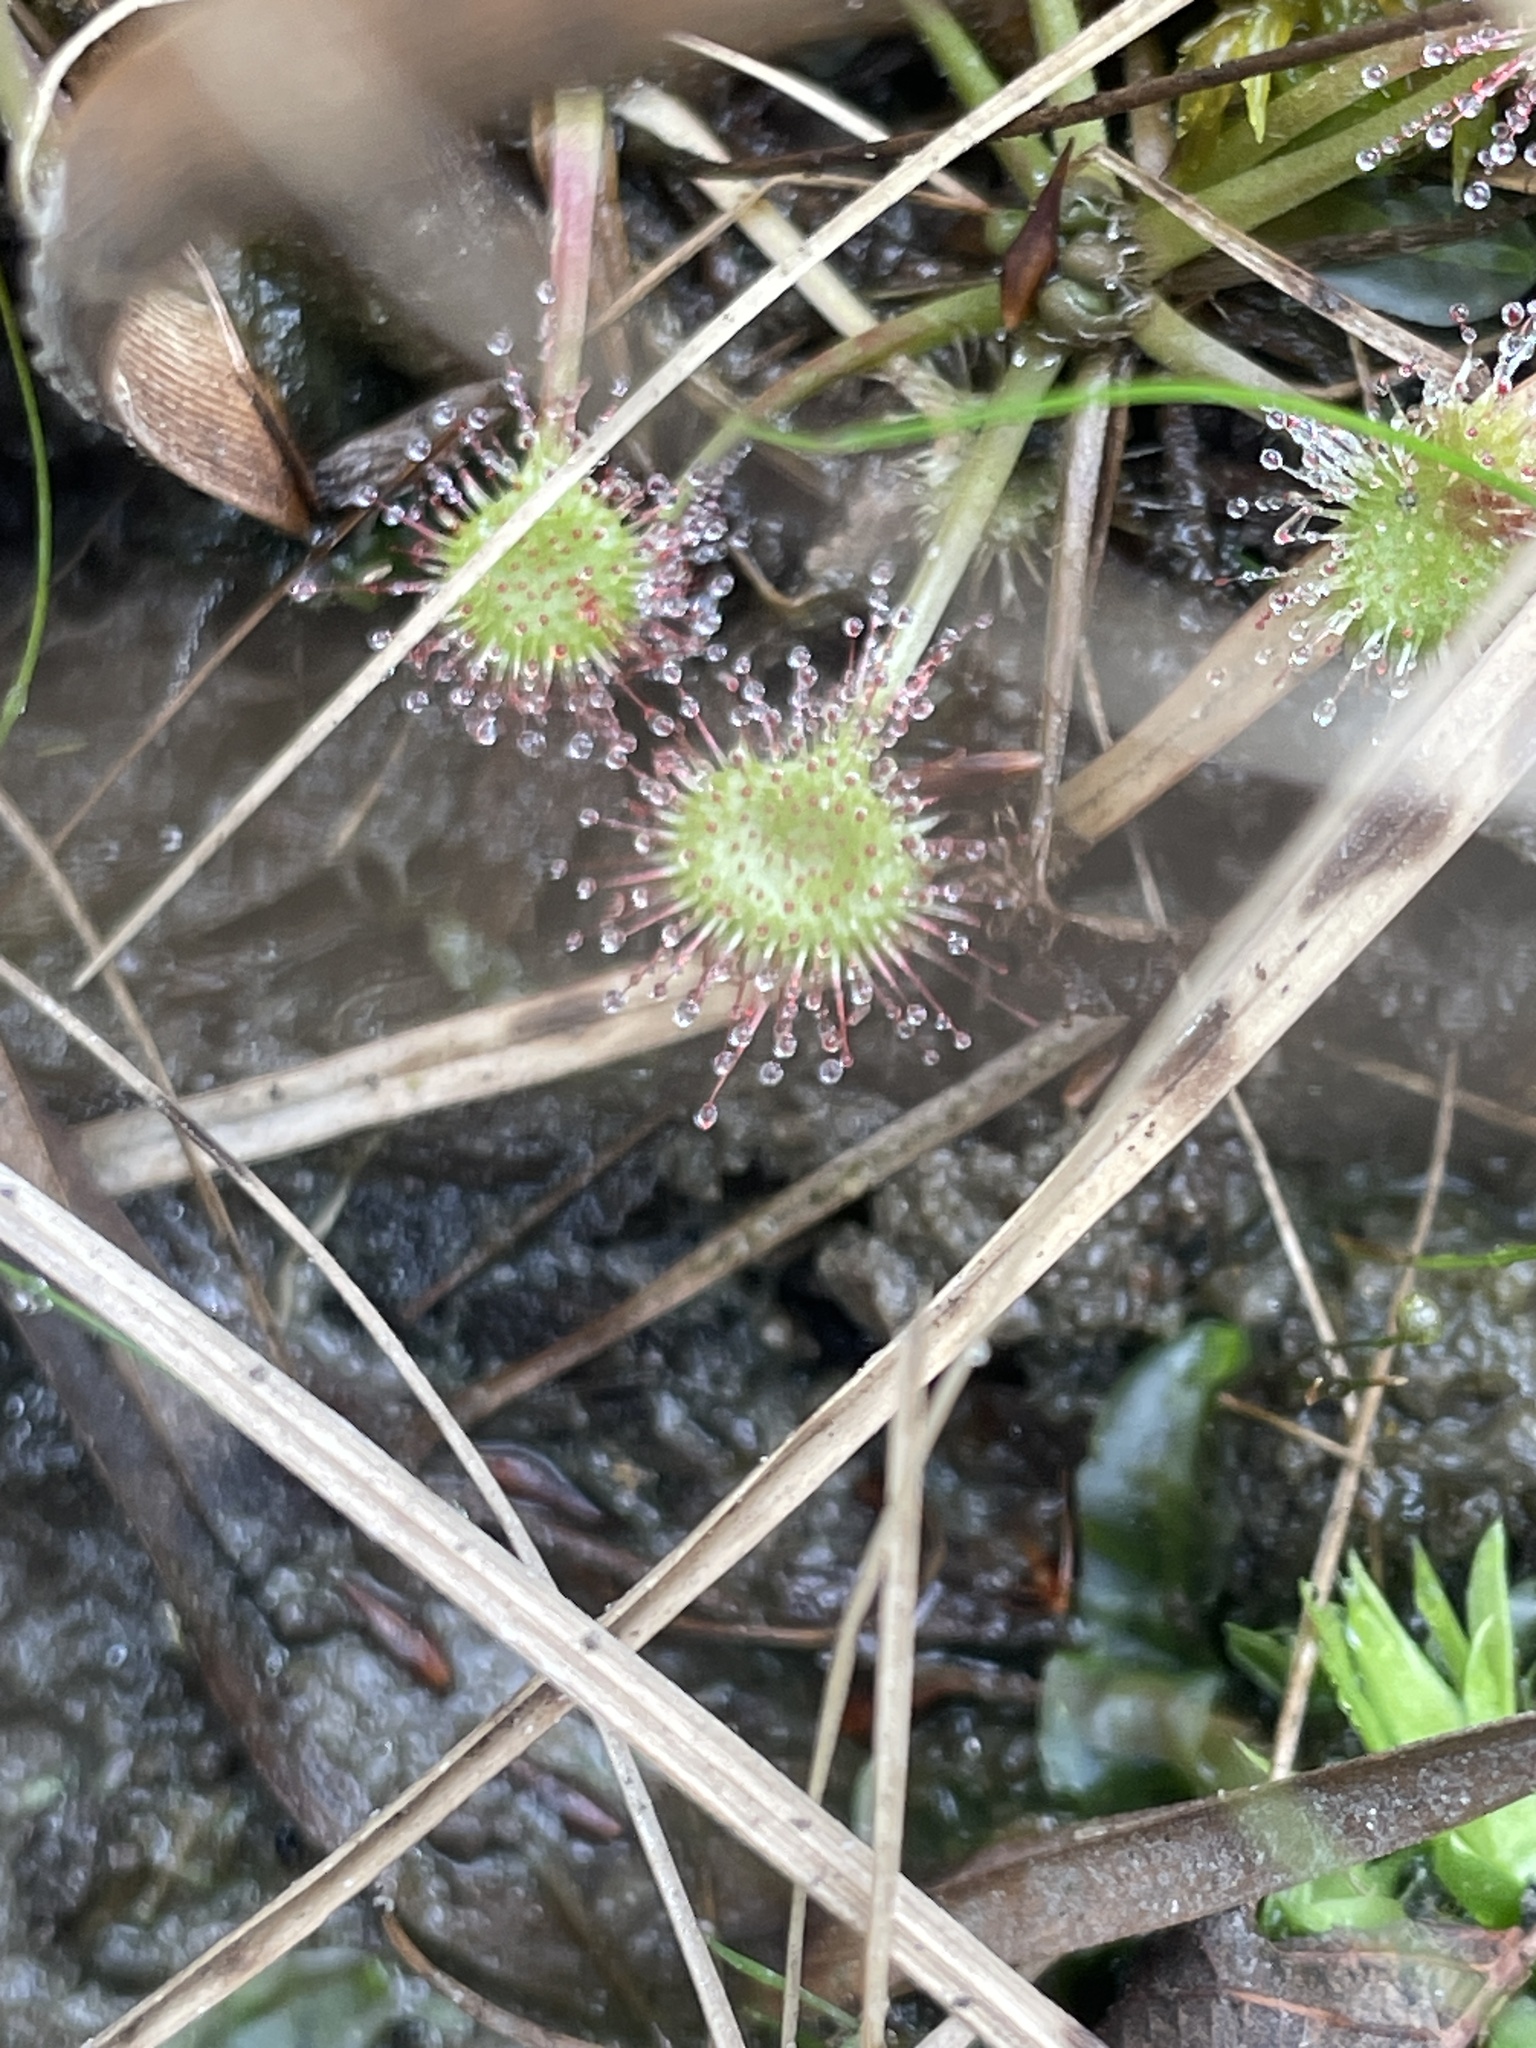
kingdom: Plantae
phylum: Tracheophyta
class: Magnoliopsida
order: Caryophyllales
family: Droseraceae
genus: Drosera
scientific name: Drosera rotundifolia
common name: Round-leaved sundew
